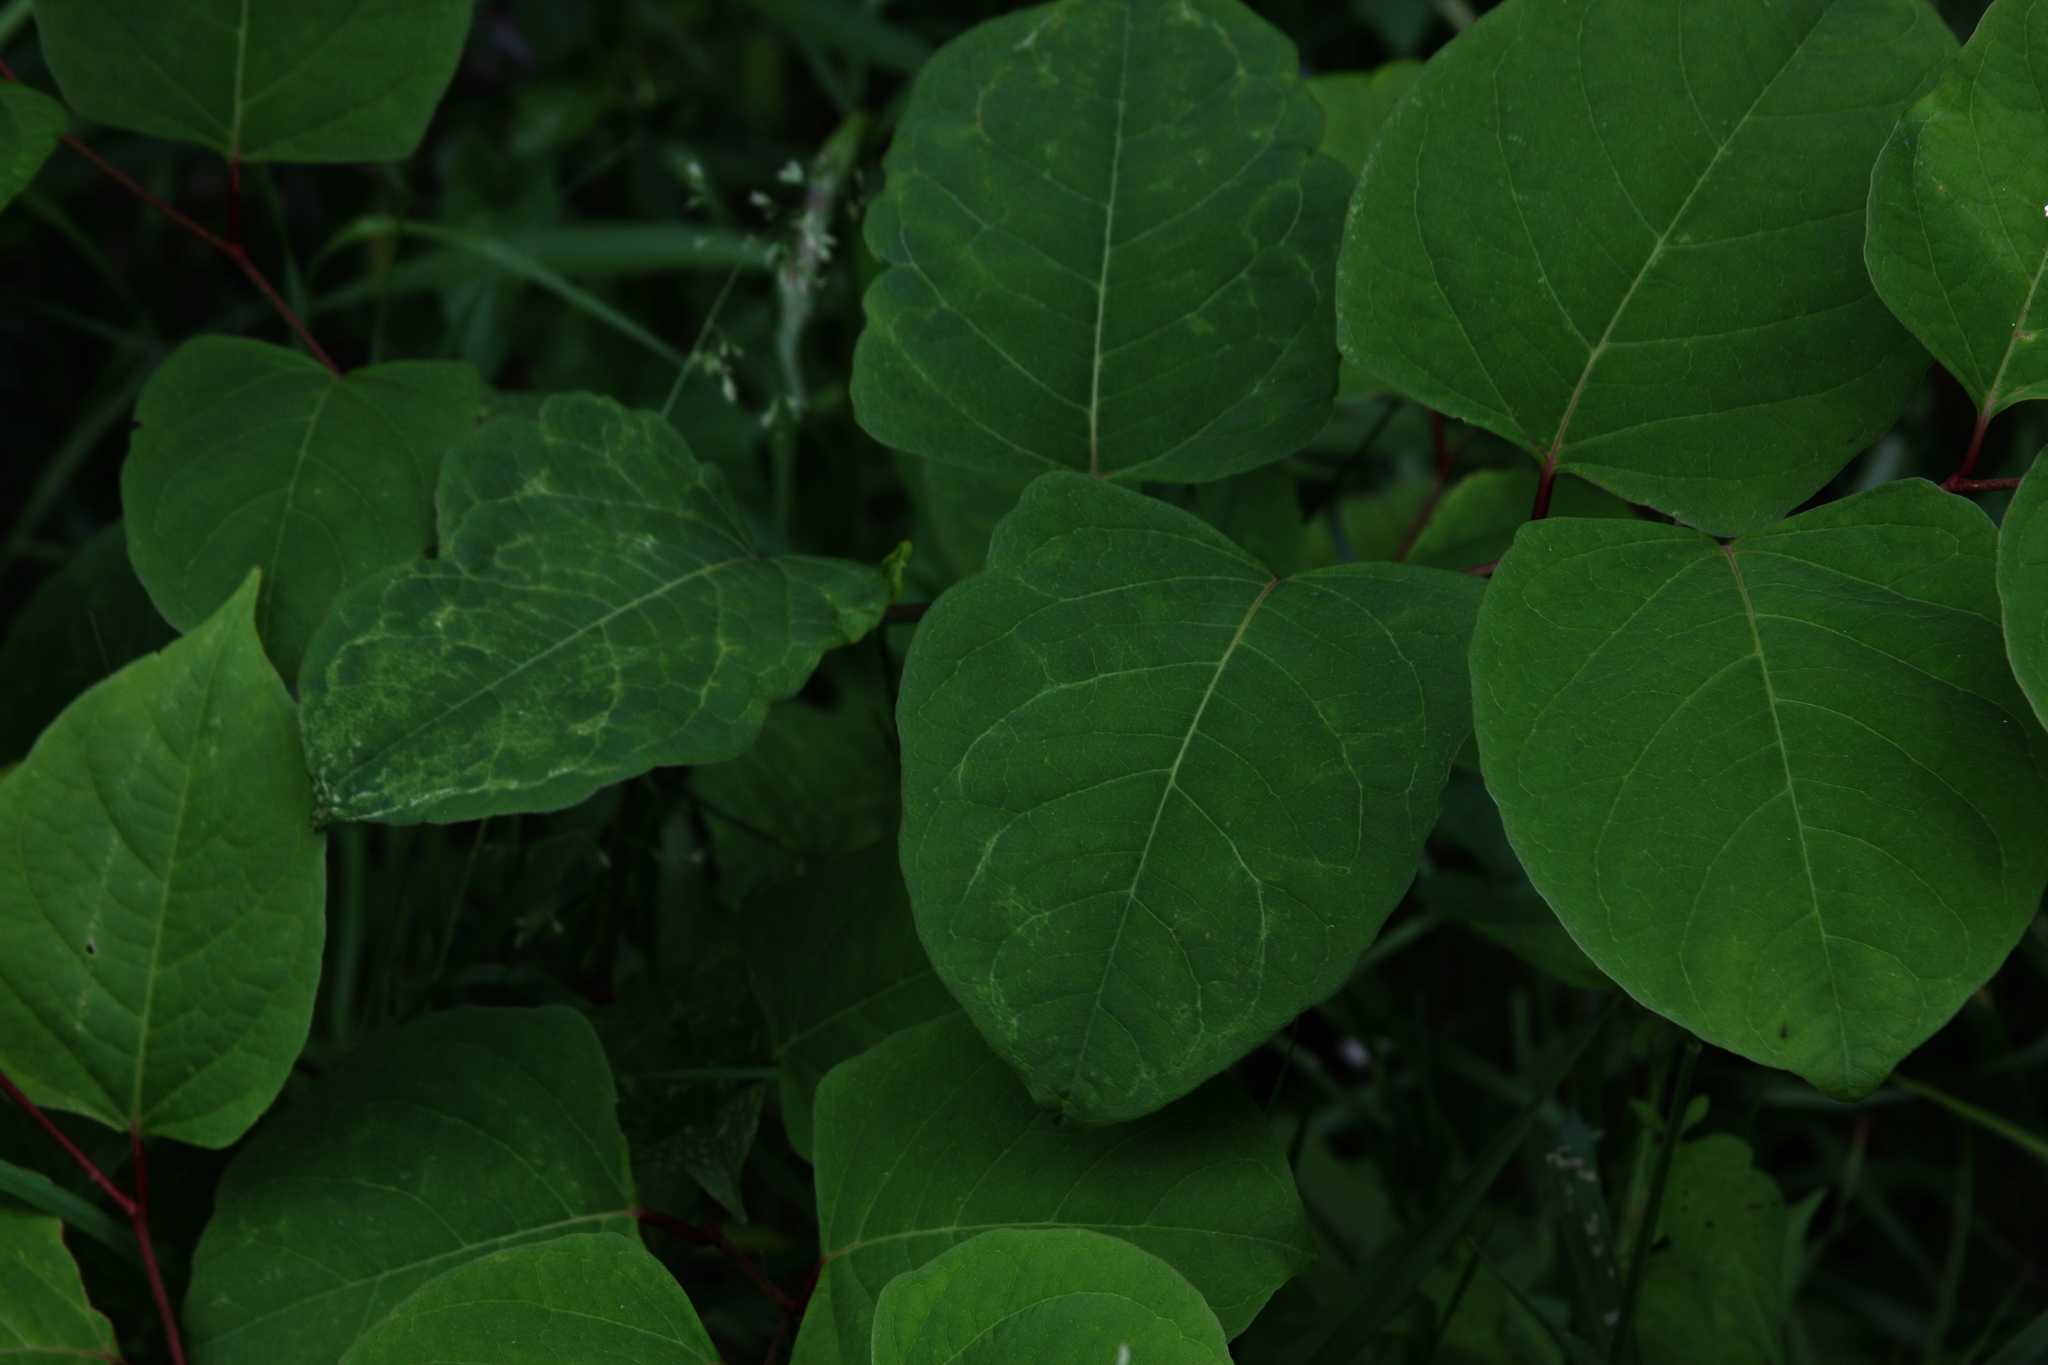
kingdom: Plantae
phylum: Tracheophyta
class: Magnoliopsida
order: Caryophyllales
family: Polygonaceae
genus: Reynoutria
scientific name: Reynoutria japonica
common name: Japanese knotweed
